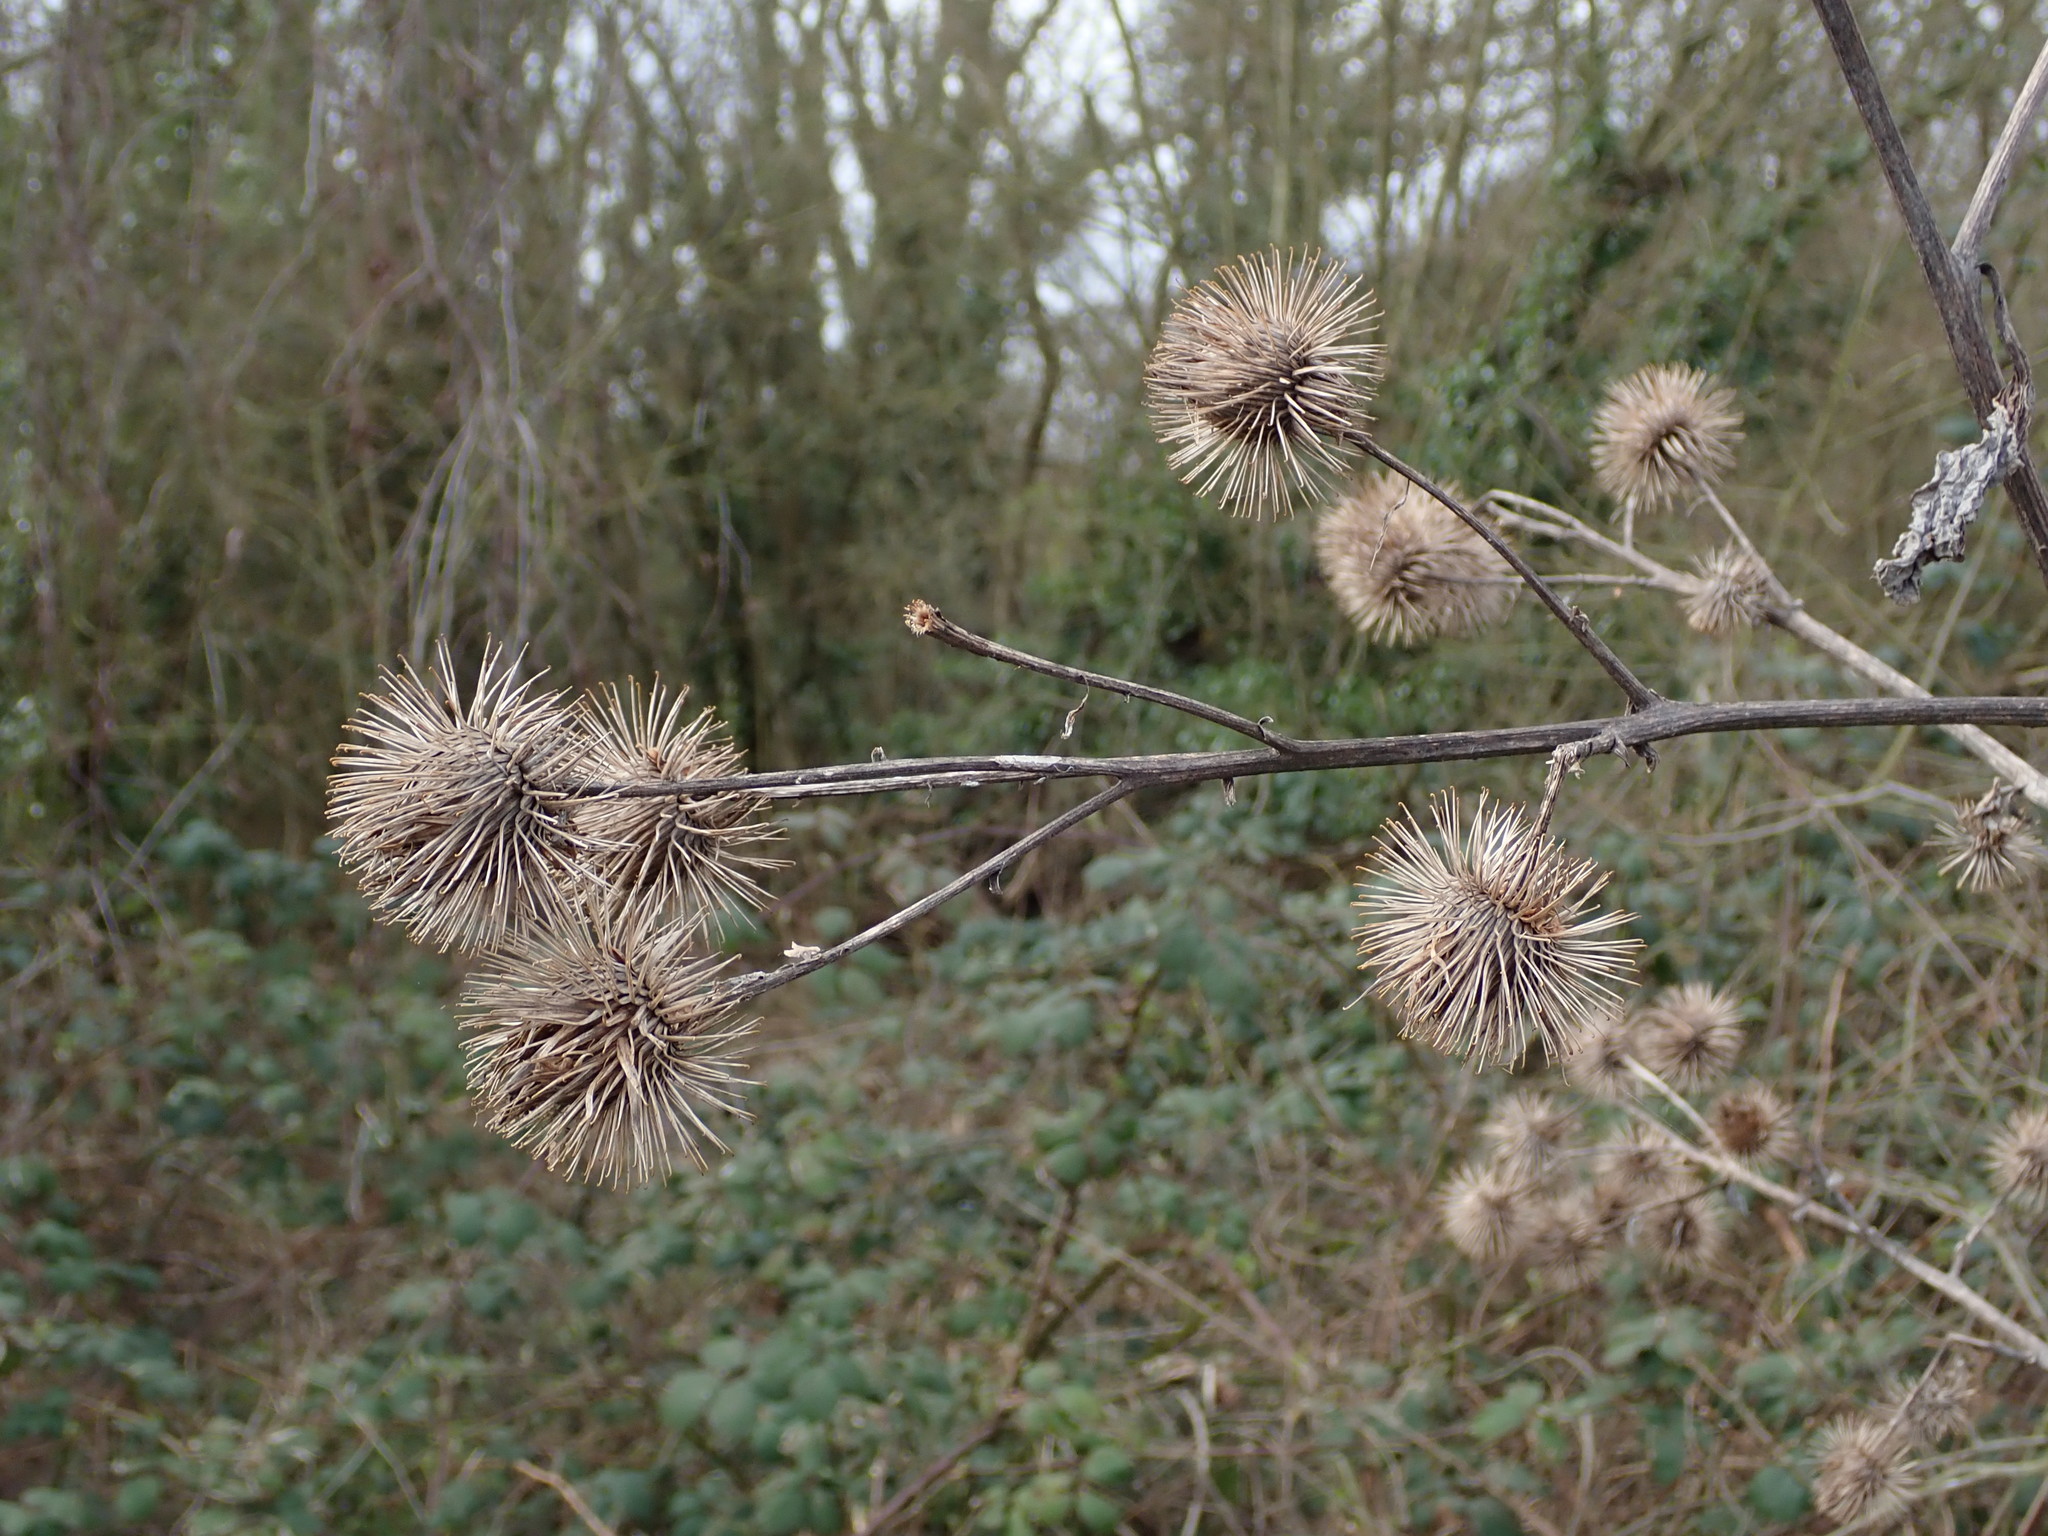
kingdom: Plantae
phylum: Tracheophyta
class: Magnoliopsida
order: Asterales
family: Asteraceae
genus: Arctium
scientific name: Arctium lappa
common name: Greater burdock
